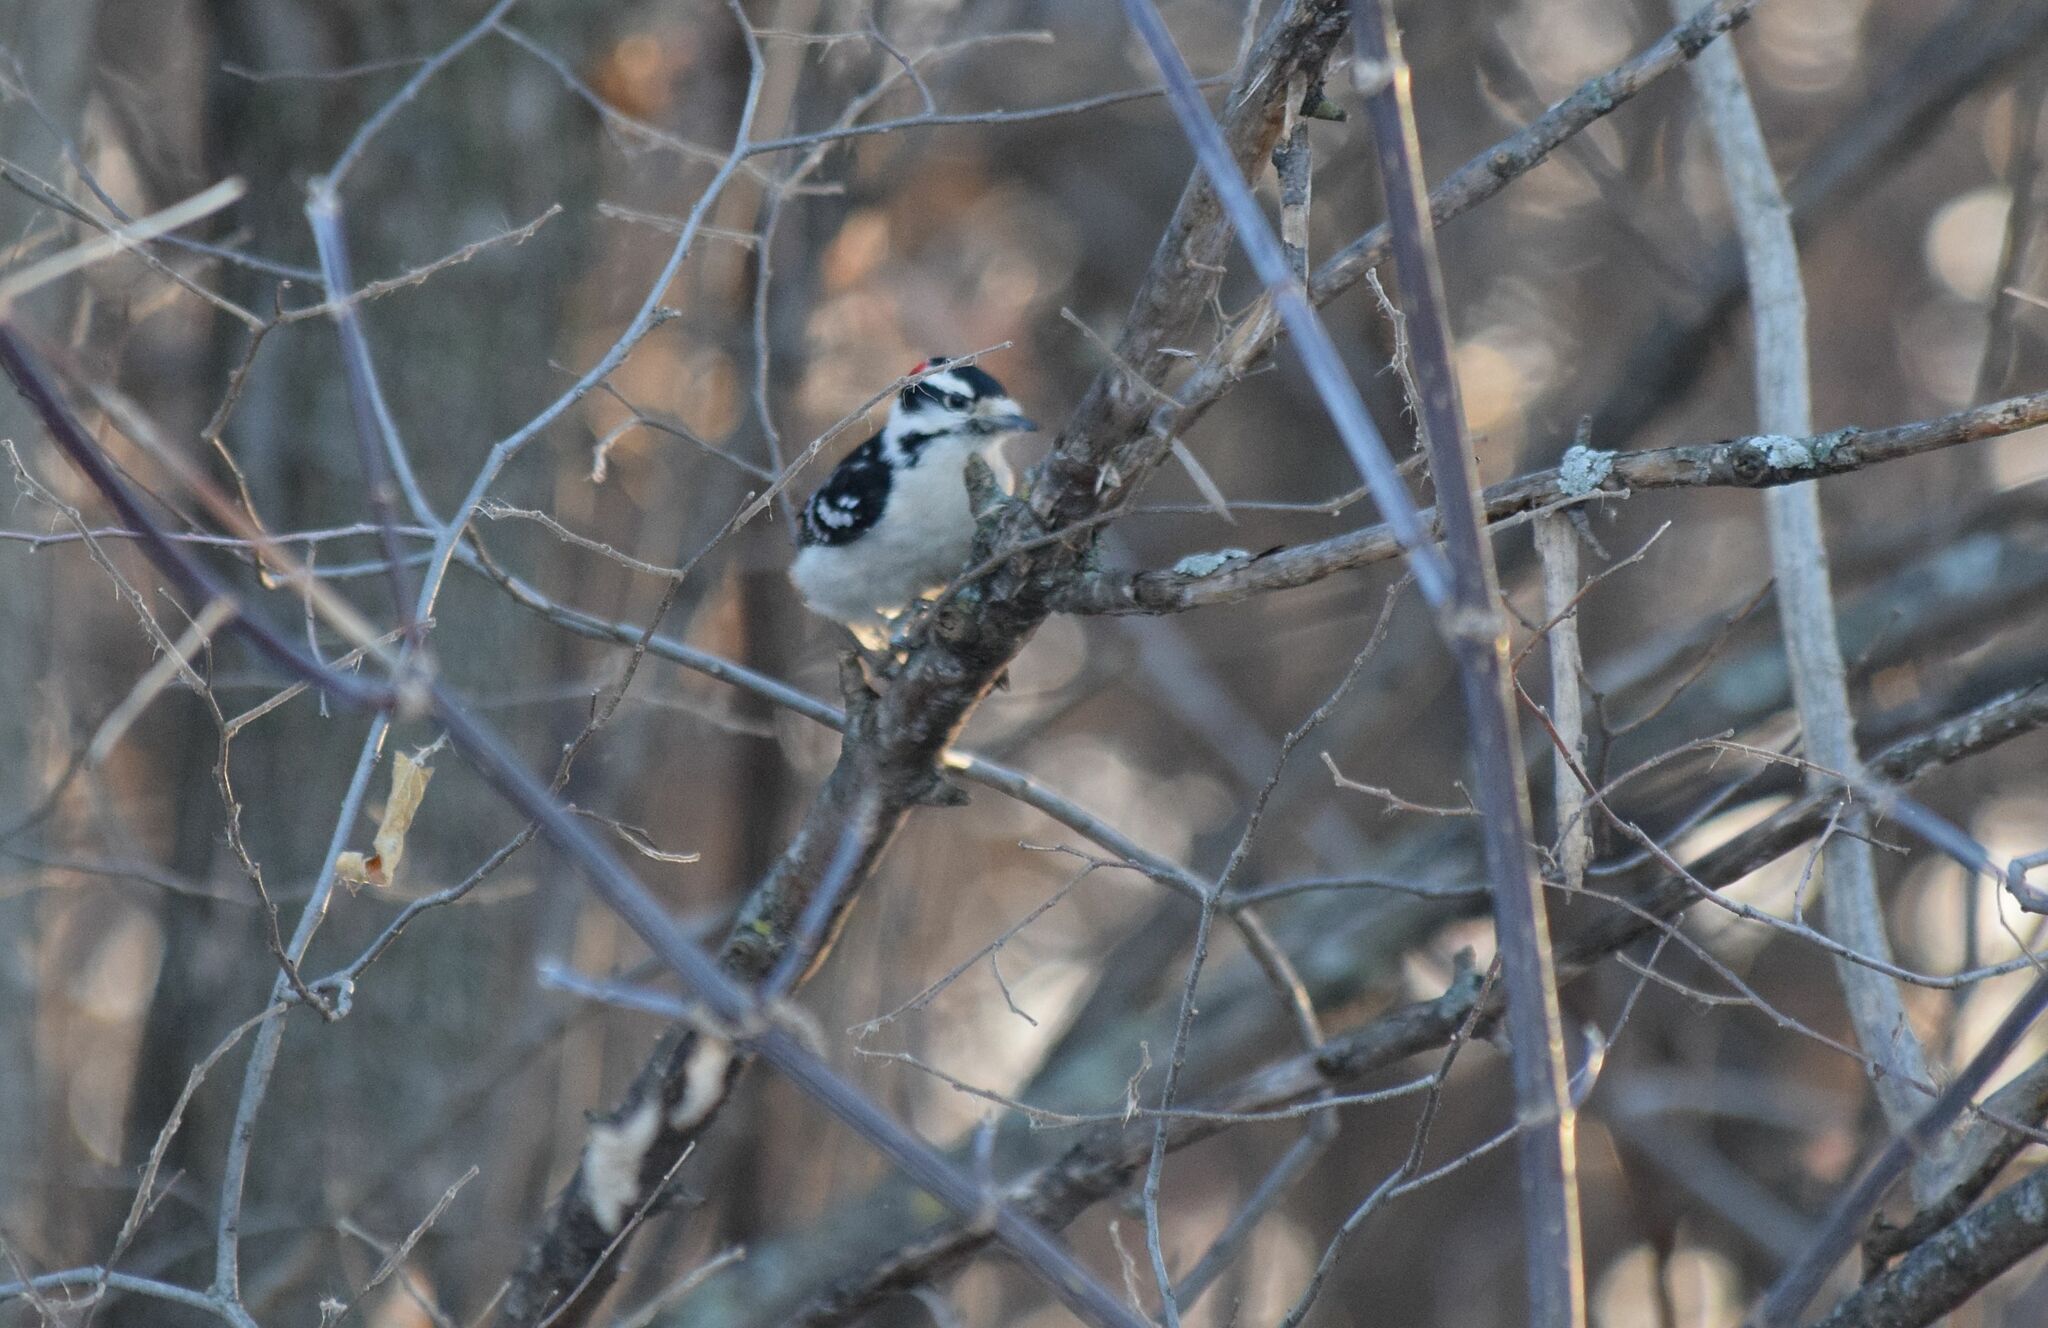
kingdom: Animalia
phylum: Chordata
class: Aves
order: Piciformes
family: Picidae
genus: Dryobates
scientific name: Dryobates pubescens
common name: Downy woodpecker
